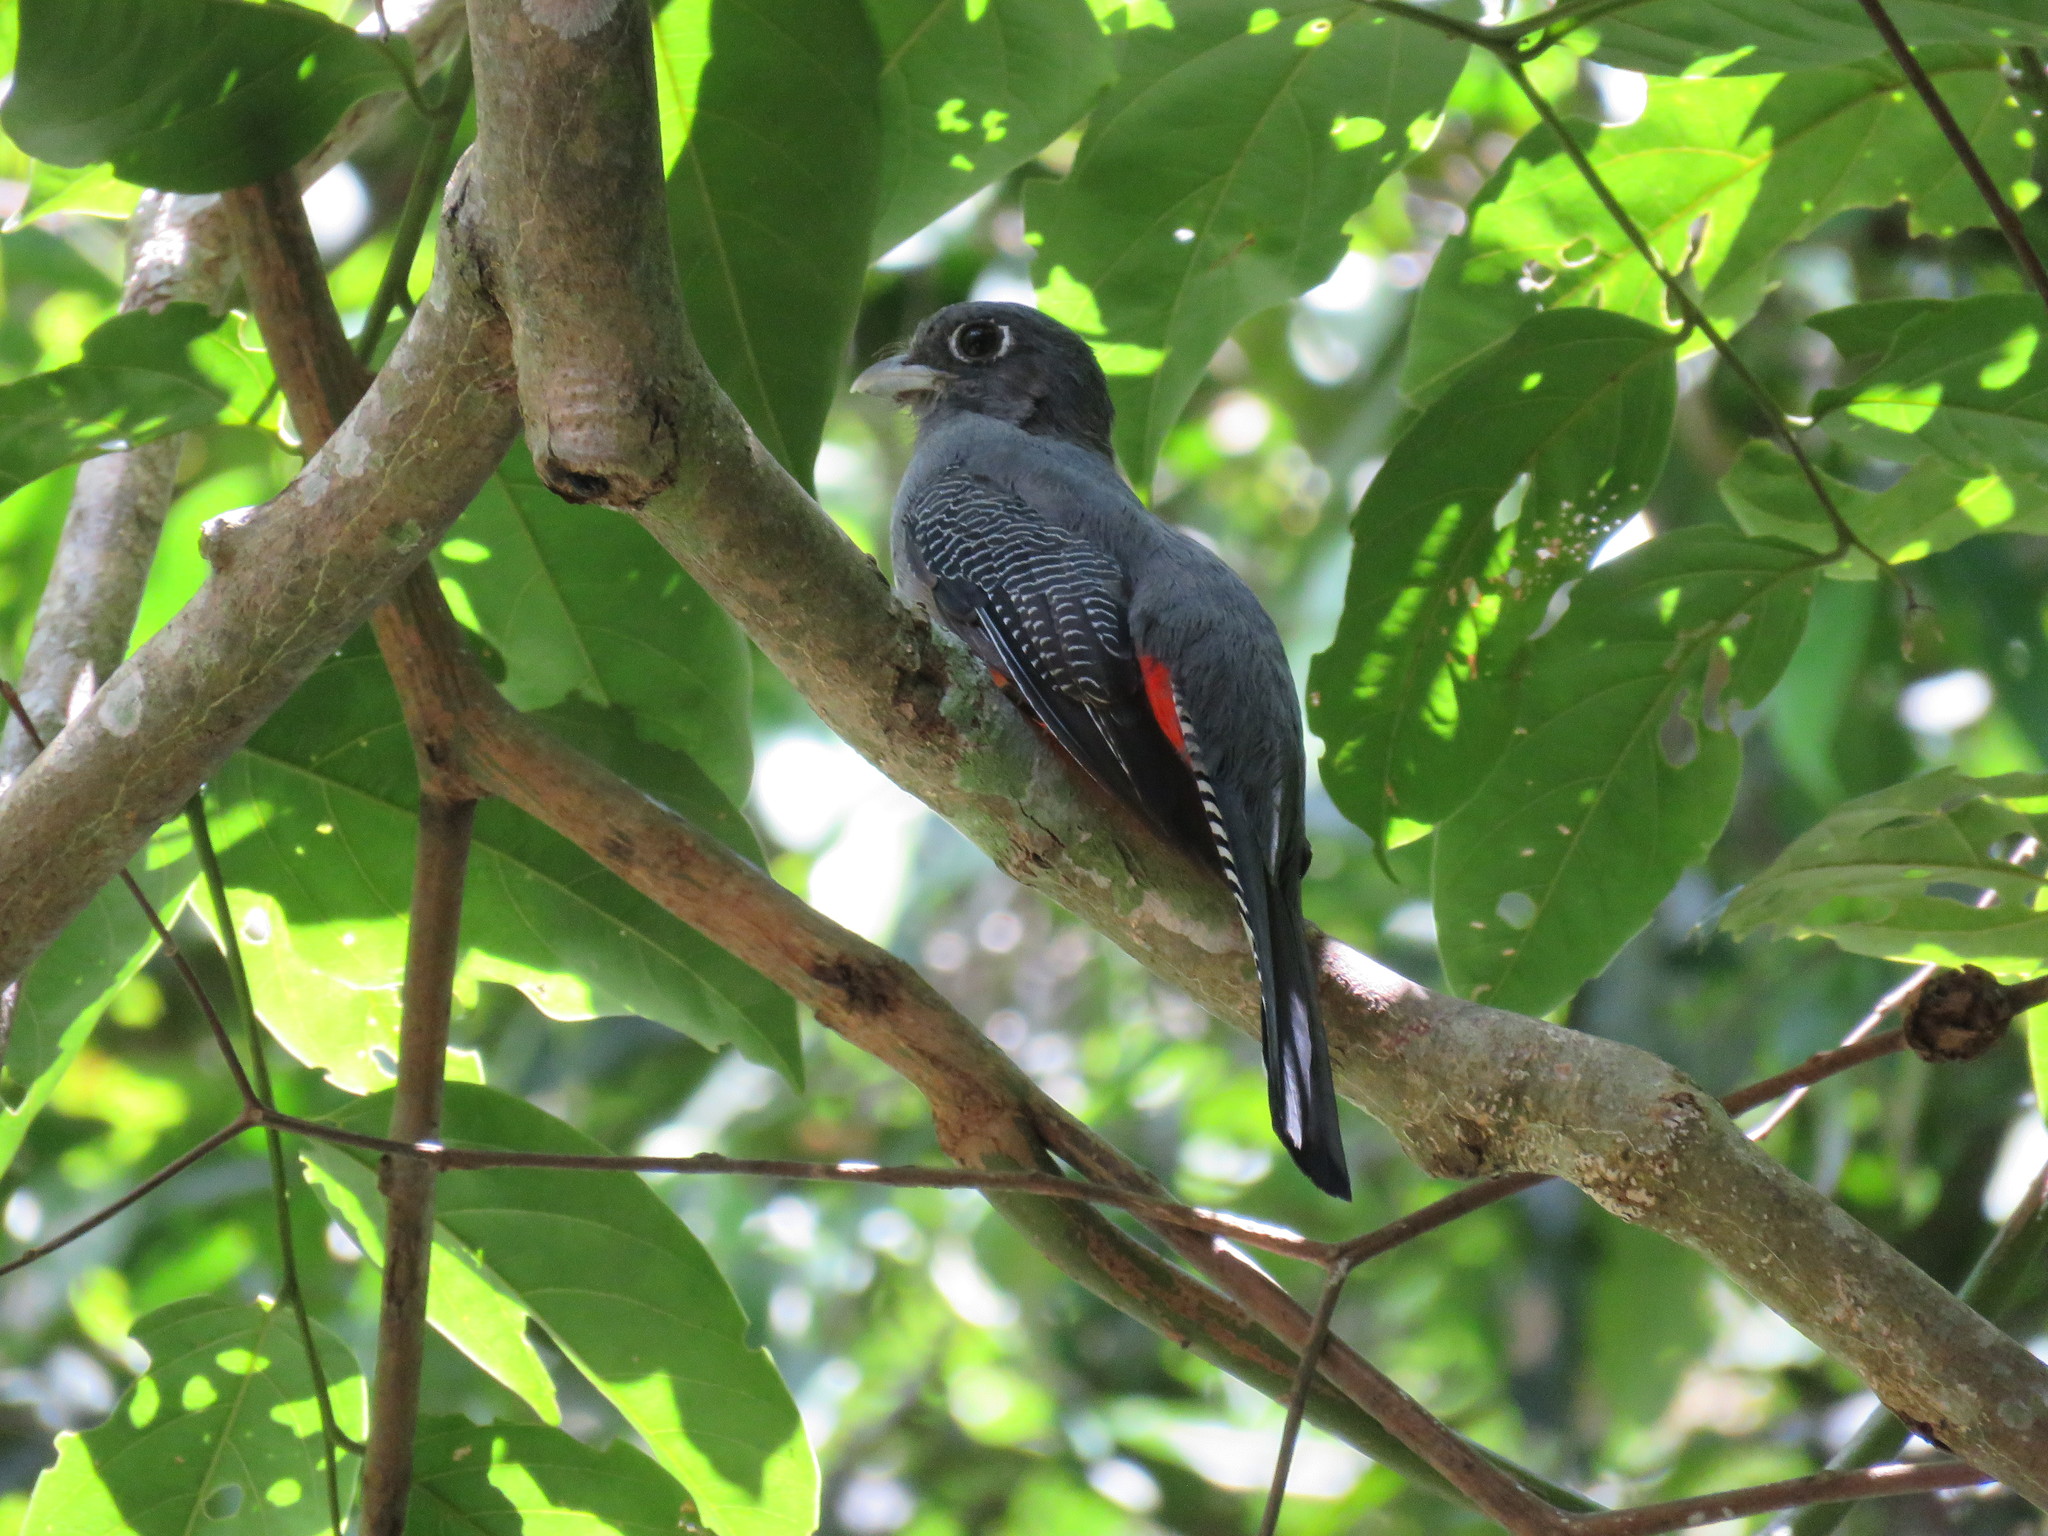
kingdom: Animalia
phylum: Chordata
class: Aves
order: Trogoniformes
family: Trogonidae
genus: Trogon
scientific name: Trogon curucui
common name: Blue-crowned trogon
